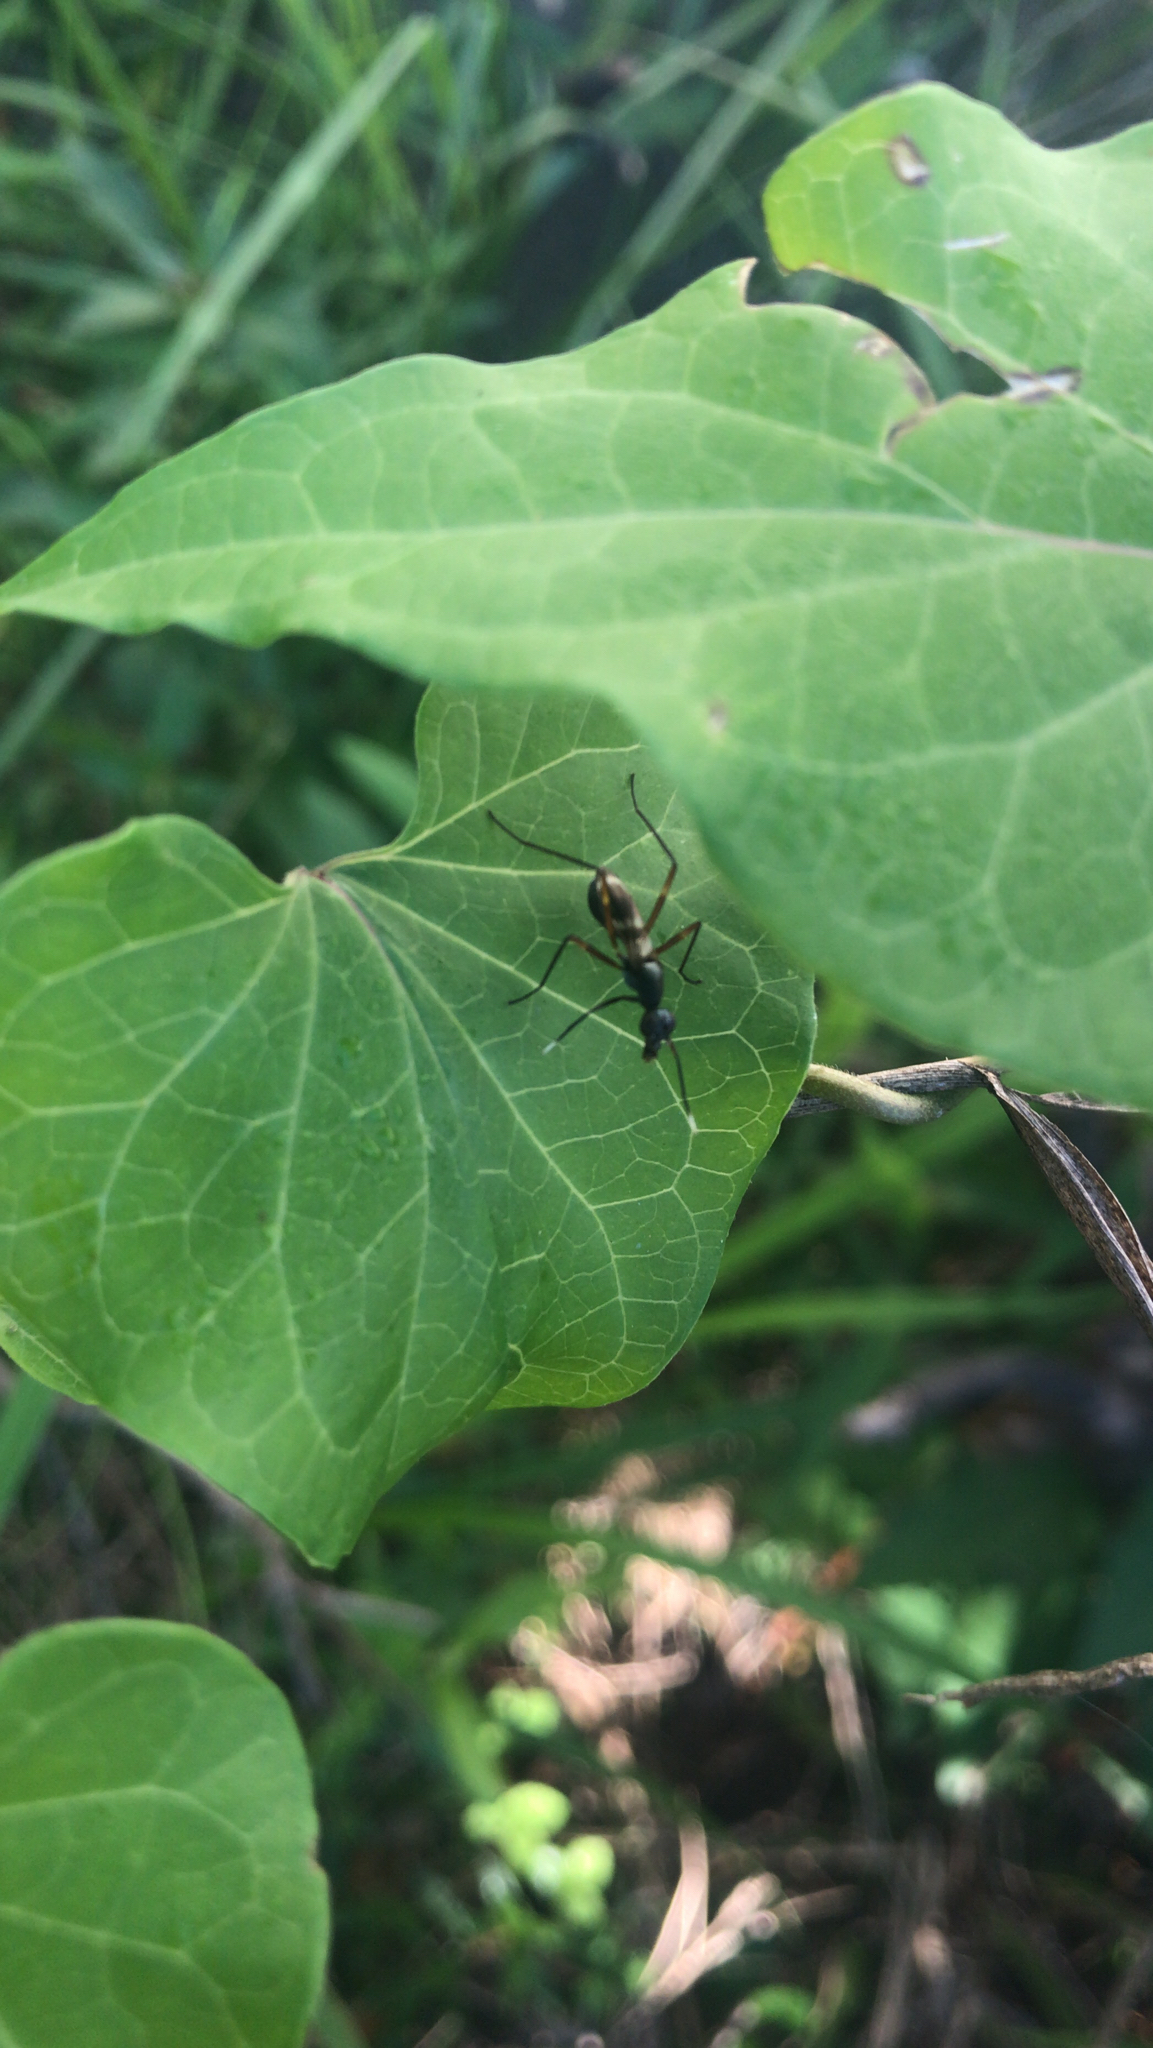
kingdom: Animalia
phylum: Arthropoda
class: Insecta
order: Diptera
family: Micropezidae
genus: Taeniaptera
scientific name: Taeniaptera trivittata
